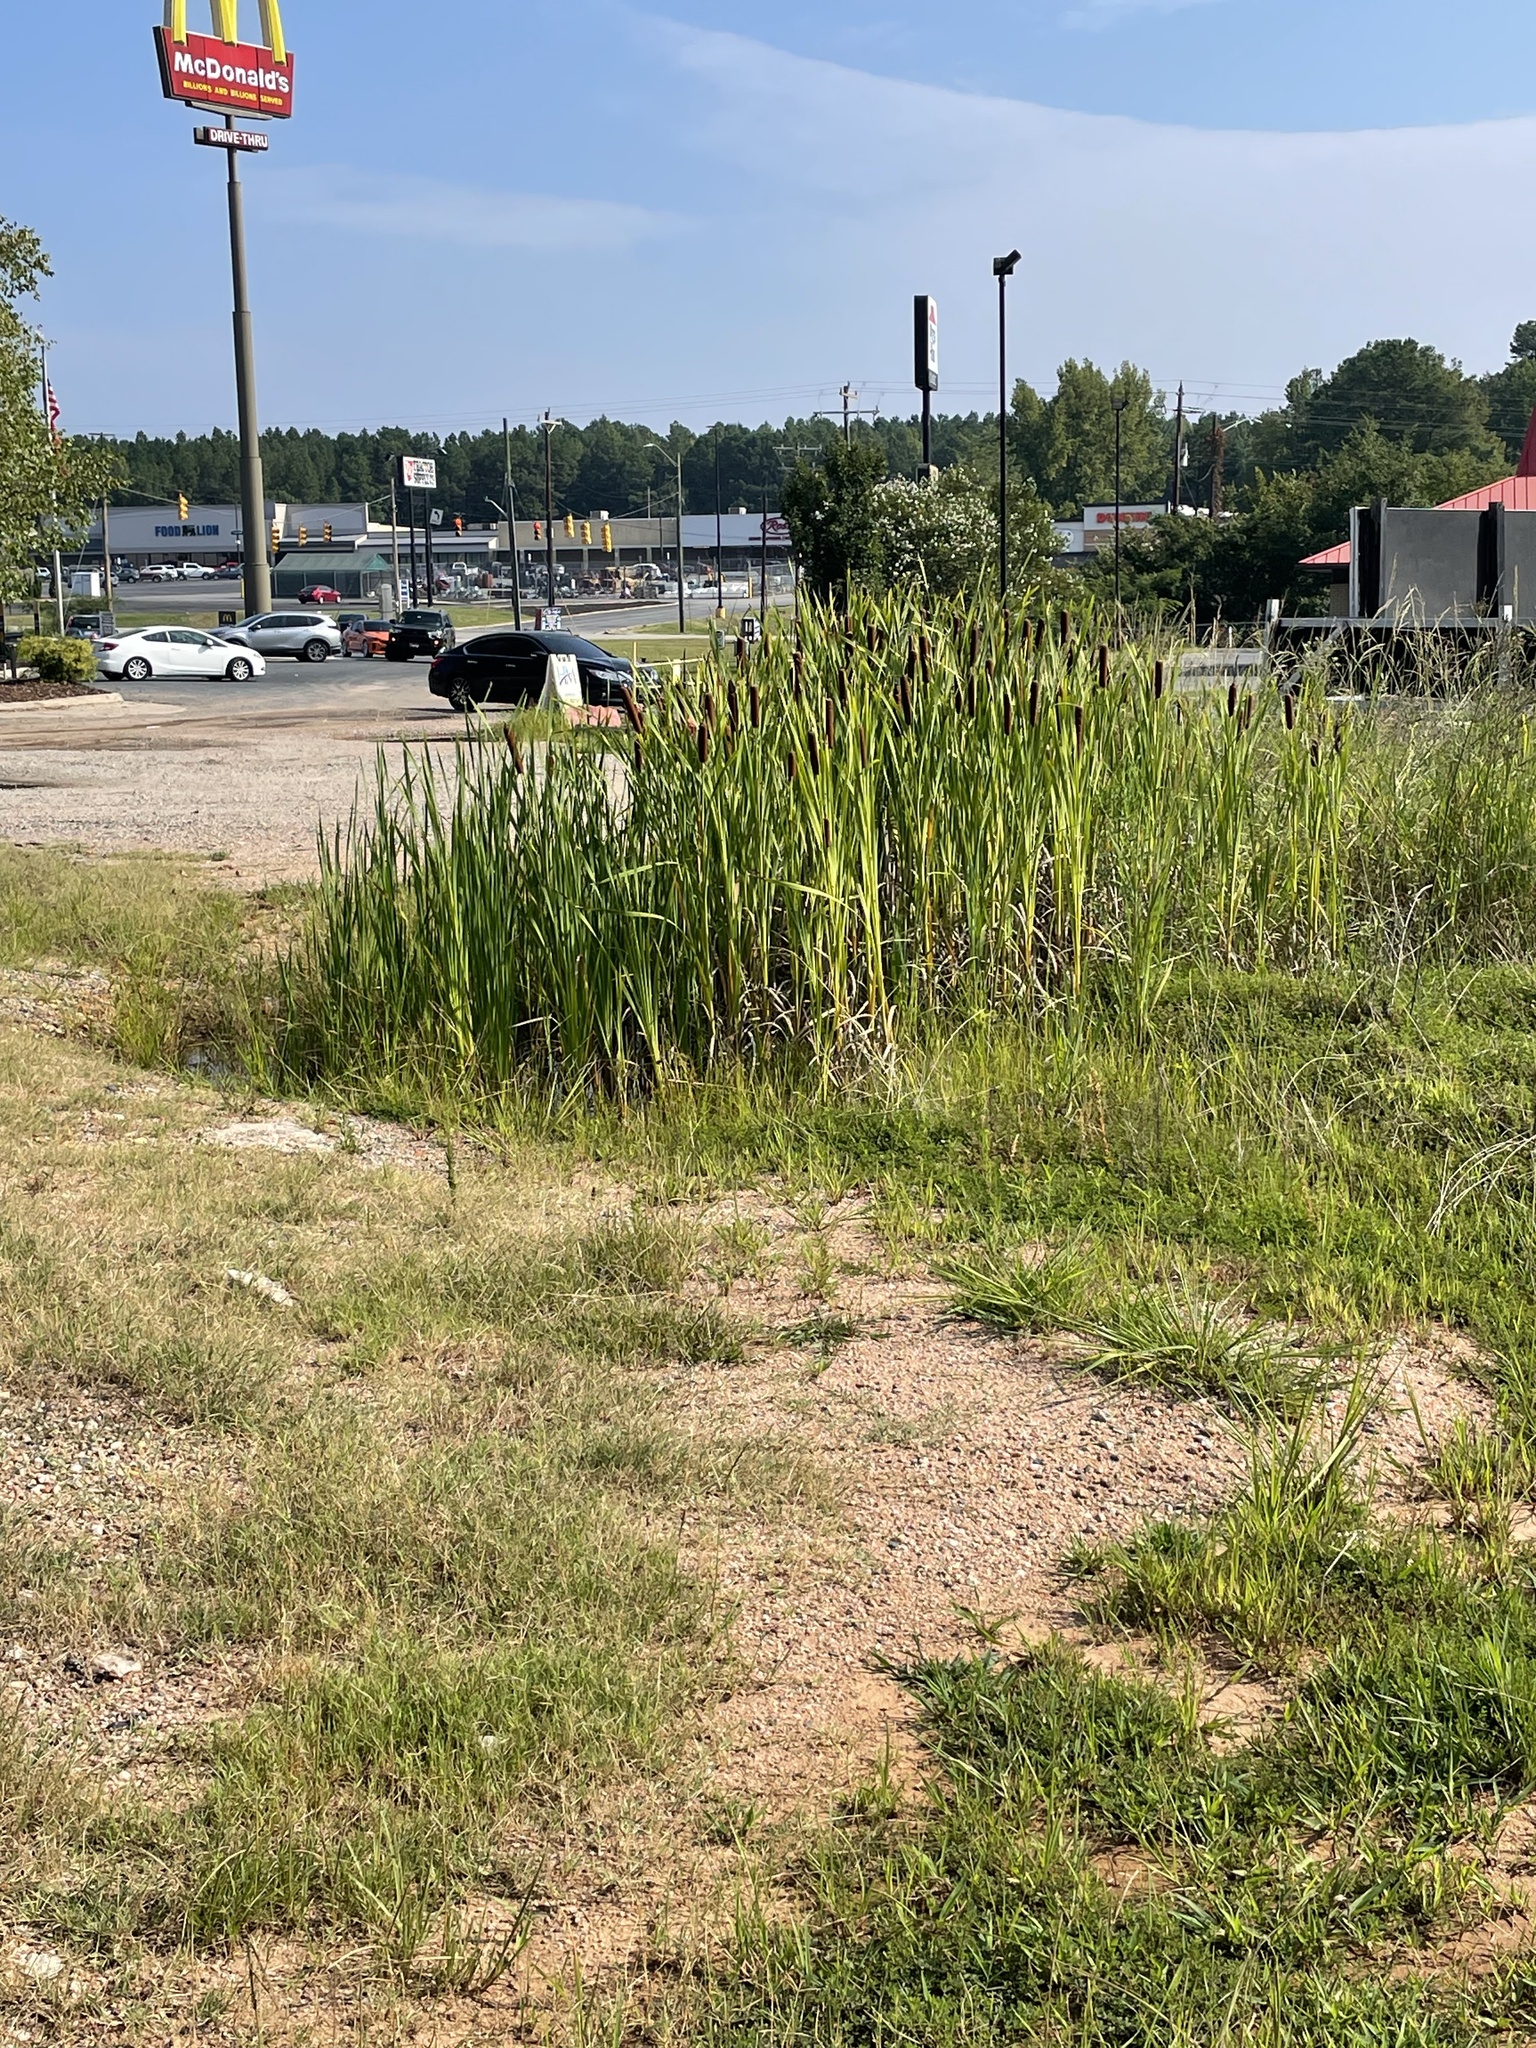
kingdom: Plantae
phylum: Tracheophyta
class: Liliopsida
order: Poales
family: Typhaceae
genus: Typha
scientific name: Typha latifolia
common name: Broadleaf cattail
